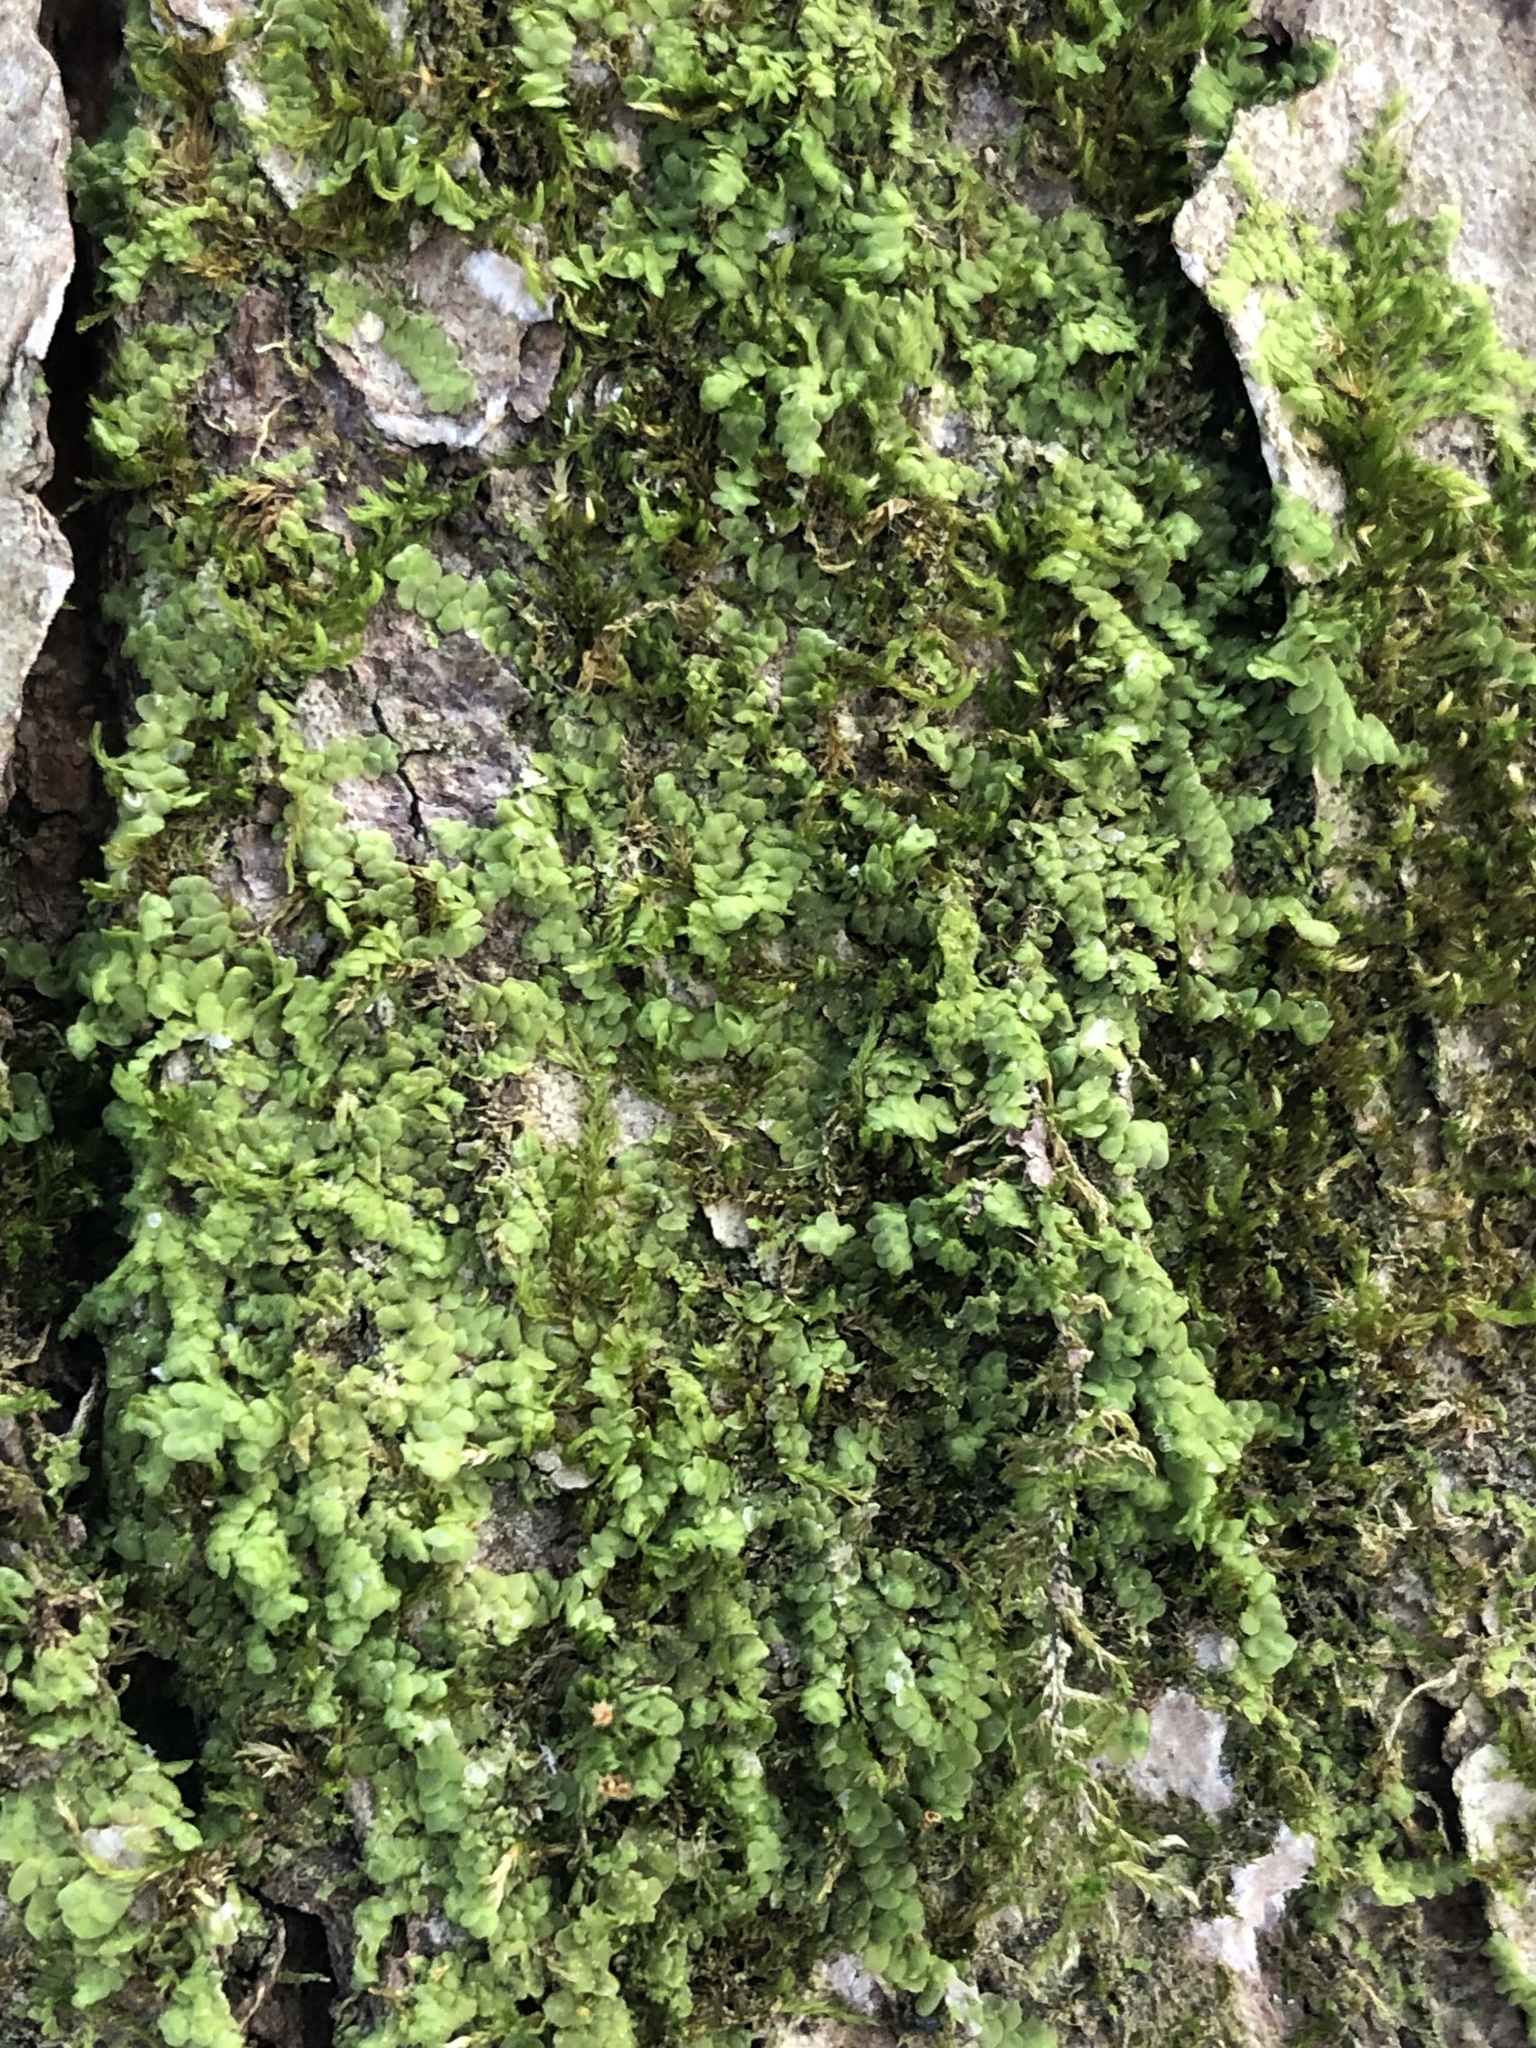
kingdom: Plantae
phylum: Marchantiophyta
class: Jungermanniopsida
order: Porellales
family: Radulaceae
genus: Radula
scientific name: Radula complanata
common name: Flat-leaved scalewort
